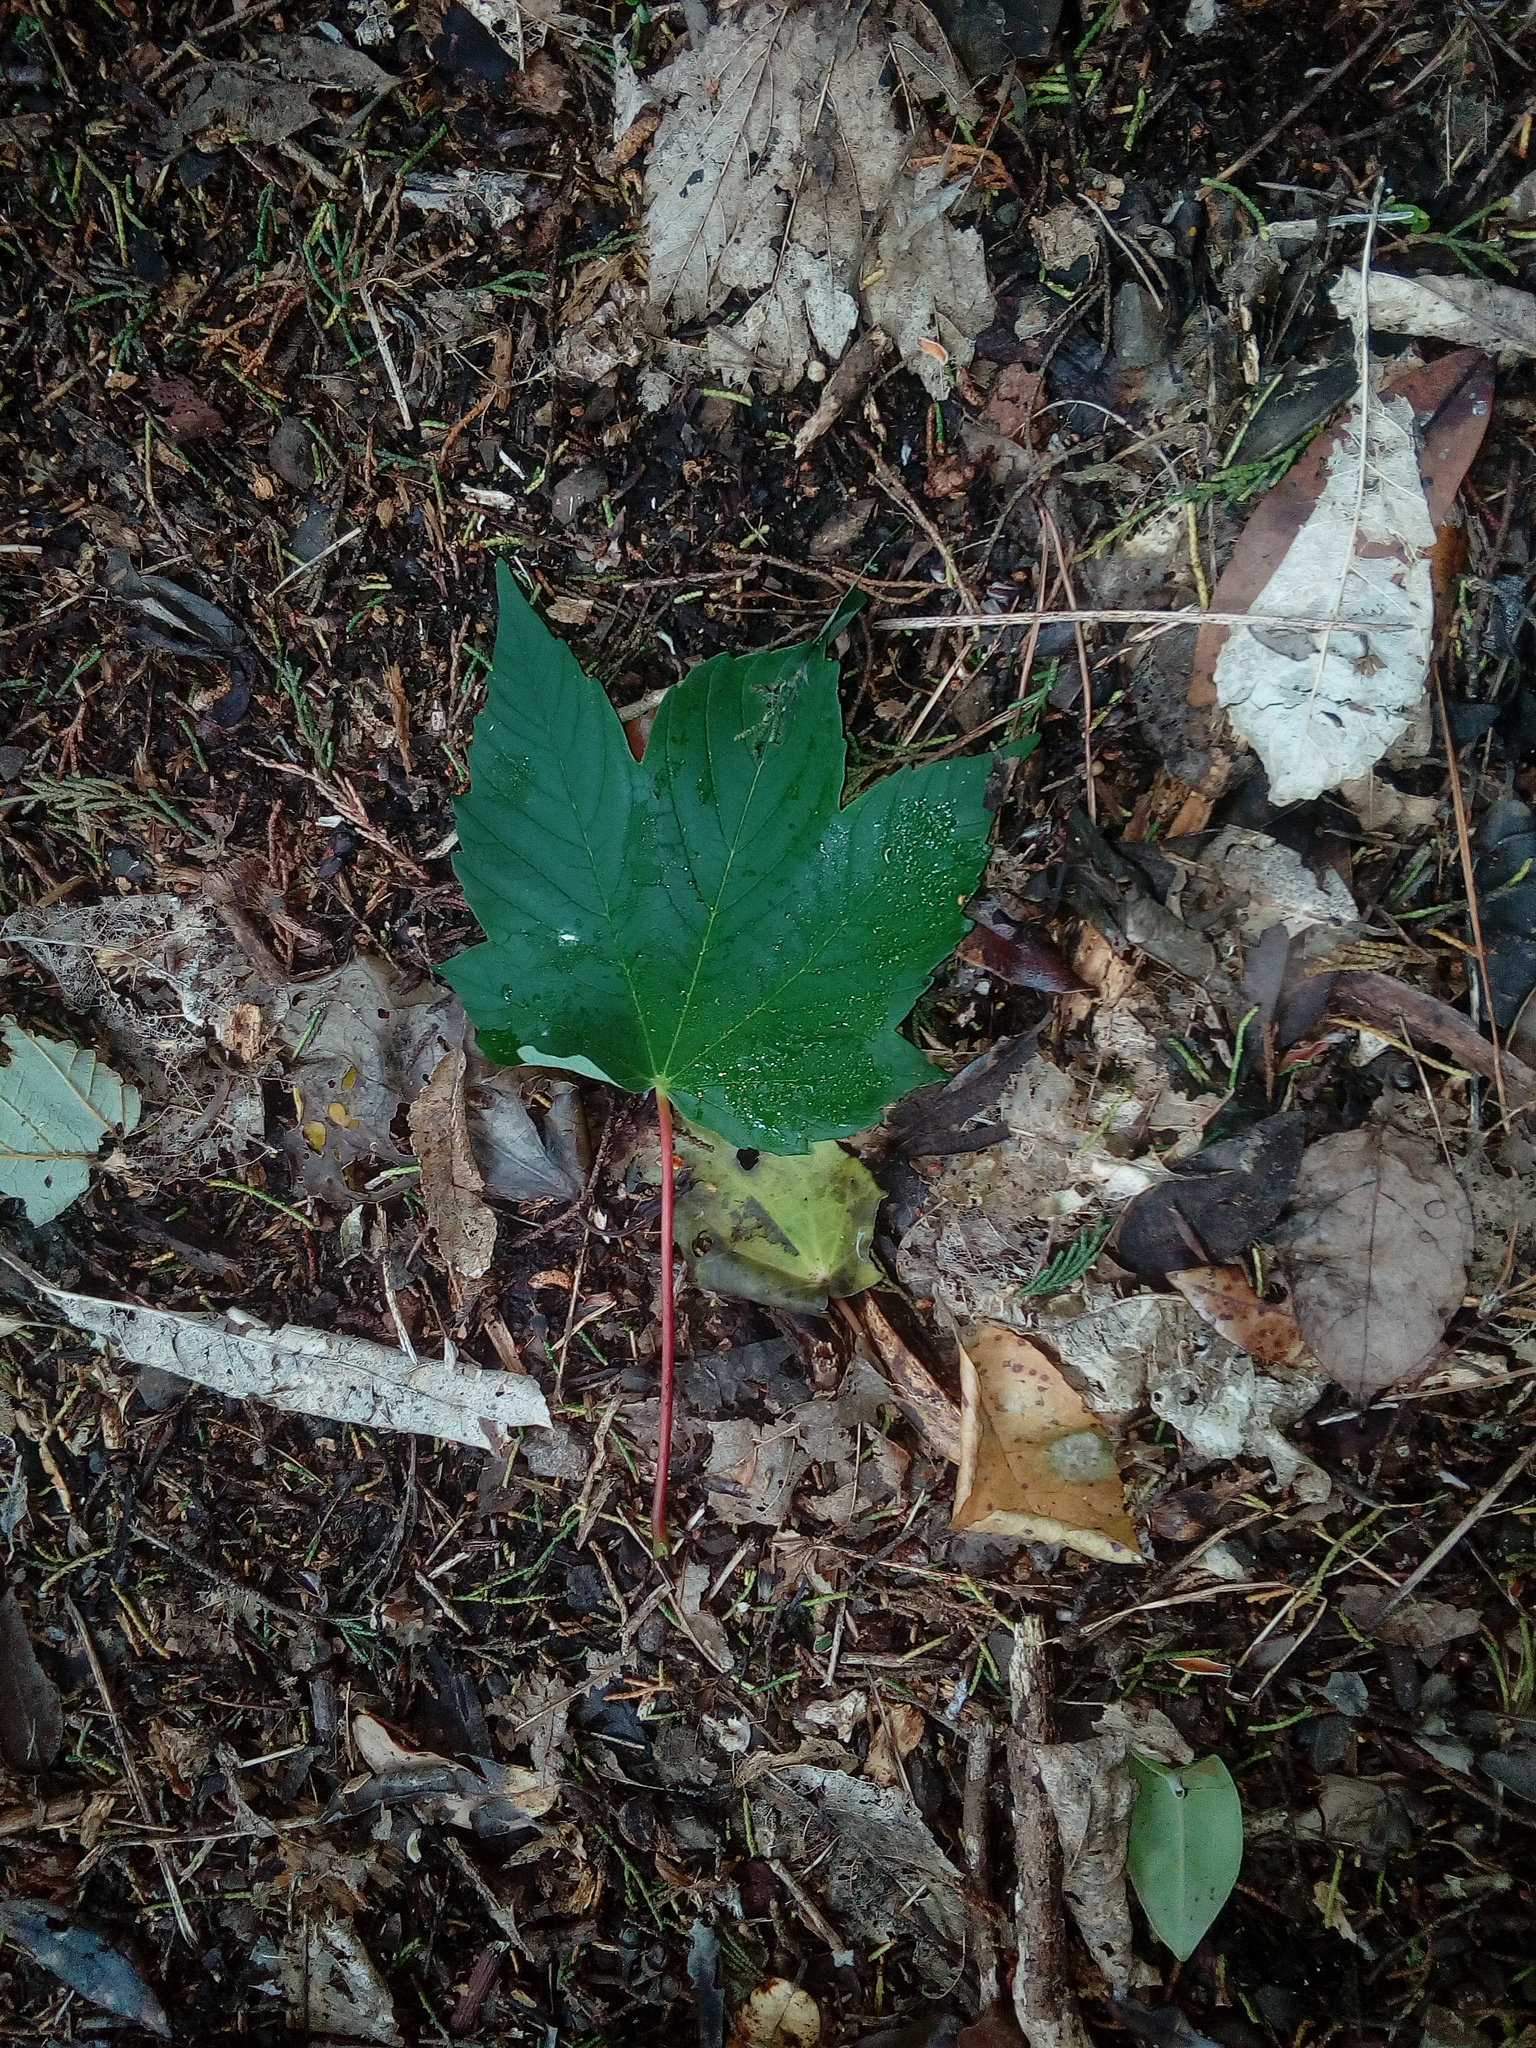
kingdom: Plantae
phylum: Tracheophyta
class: Magnoliopsida
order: Sapindales
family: Sapindaceae
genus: Acer
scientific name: Acer pseudoplatanus
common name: Sycamore
